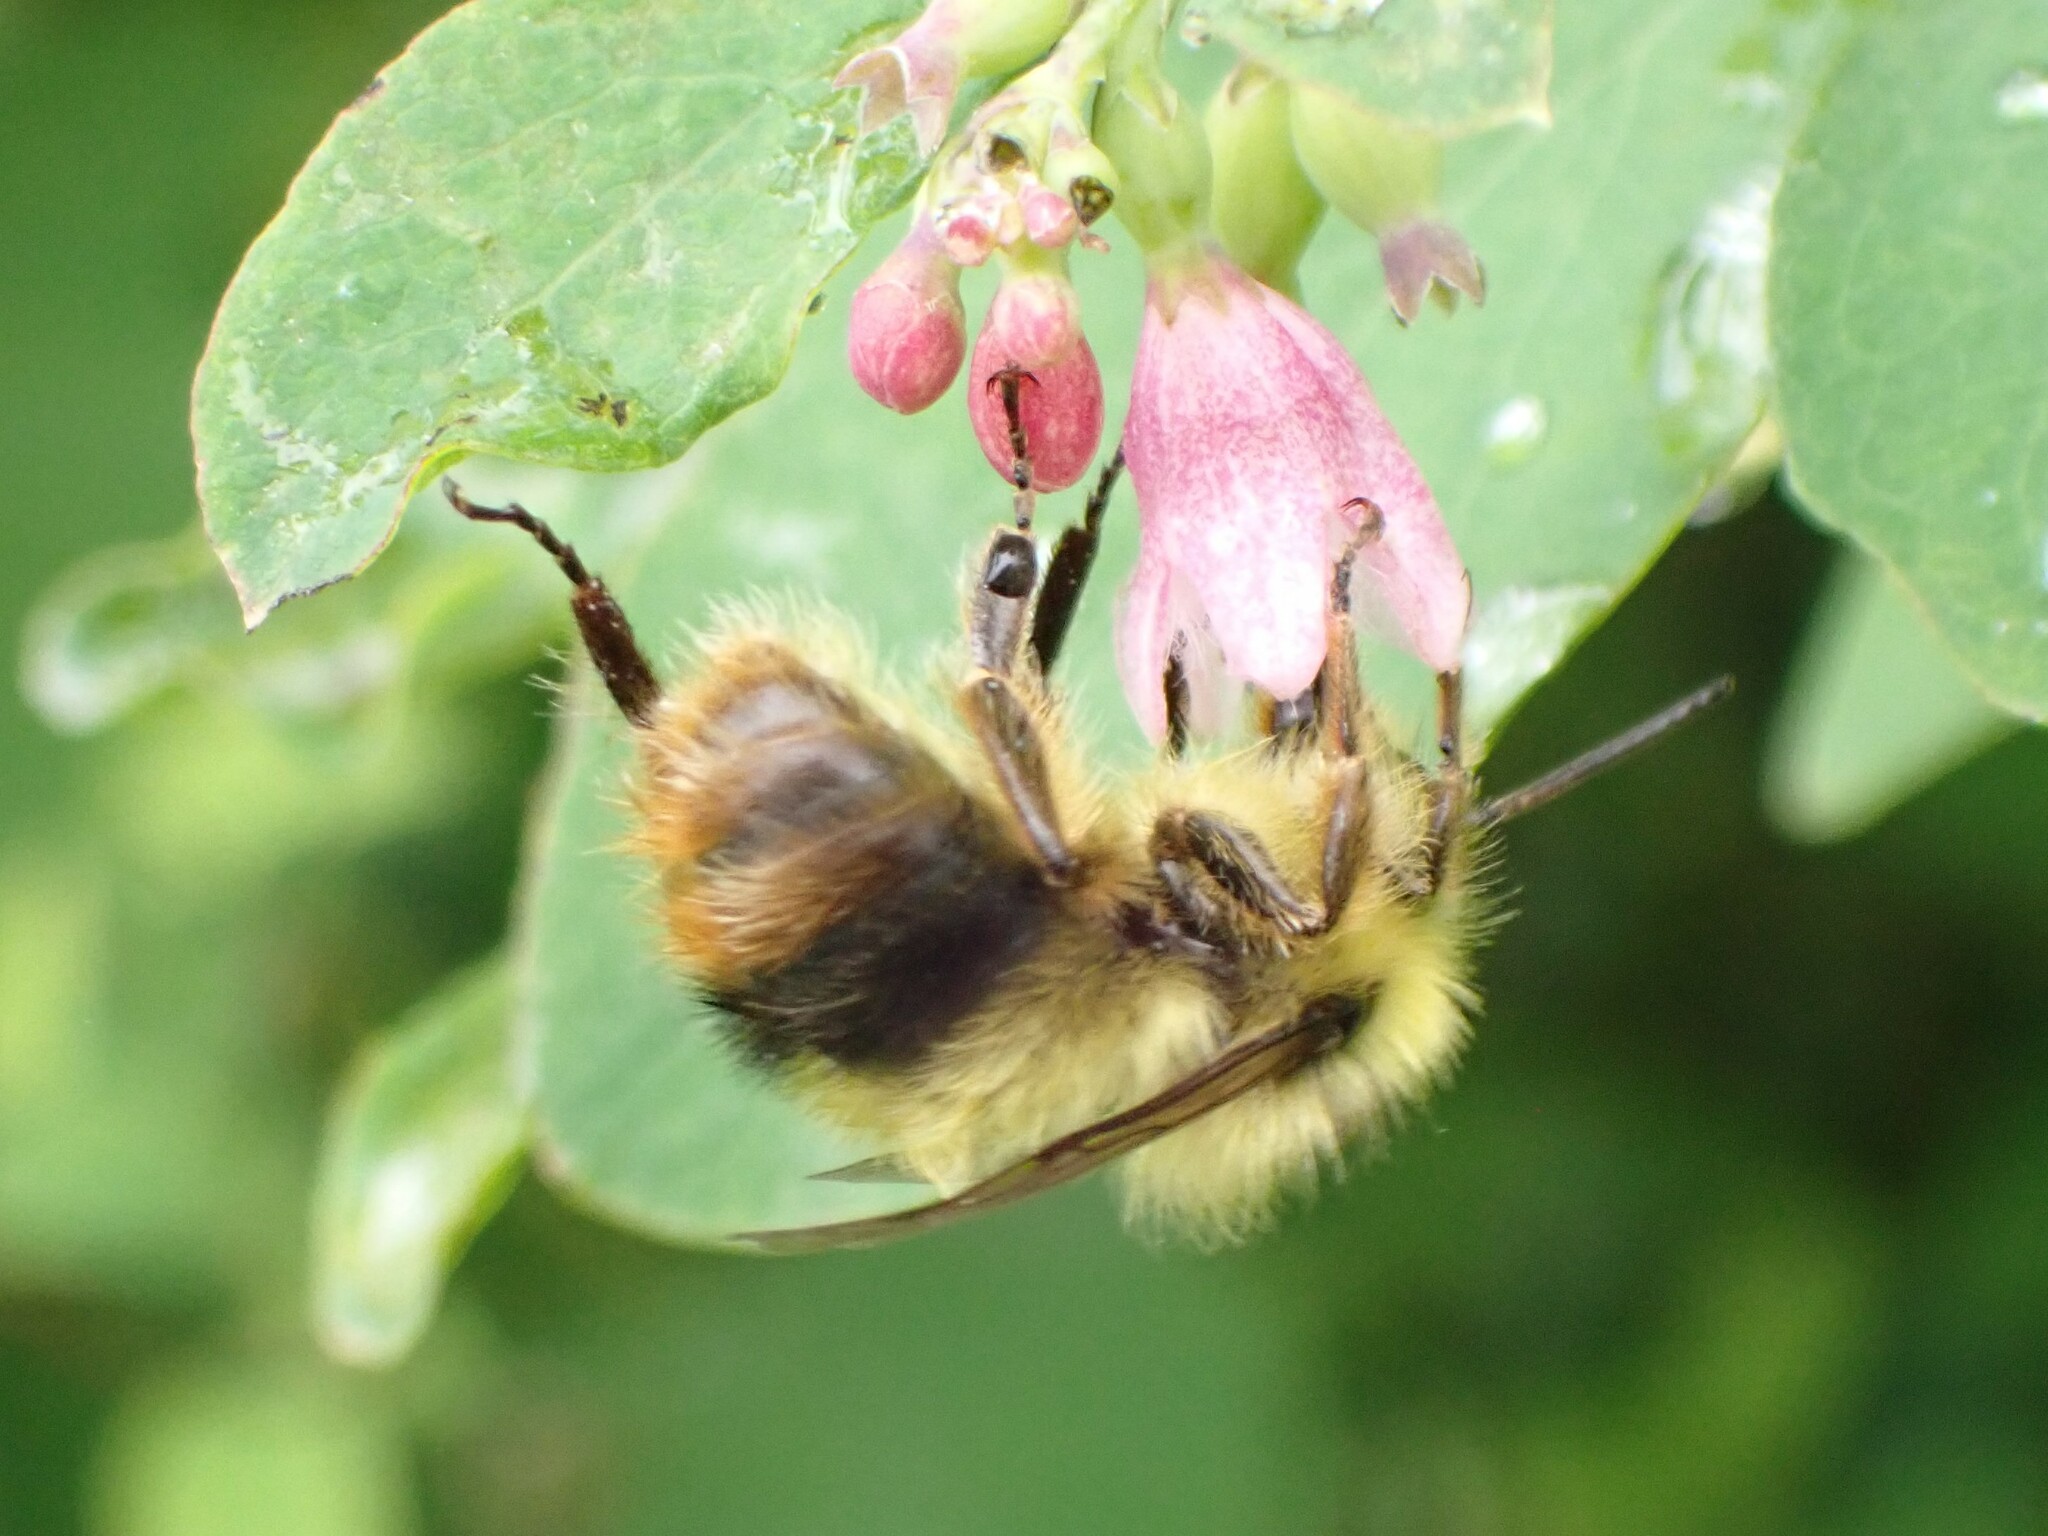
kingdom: Animalia
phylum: Arthropoda
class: Insecta
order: Hymenoptera
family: Apidae
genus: Bombus
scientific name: Bombus mixtus
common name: Fuzzy-horned bumble bee
